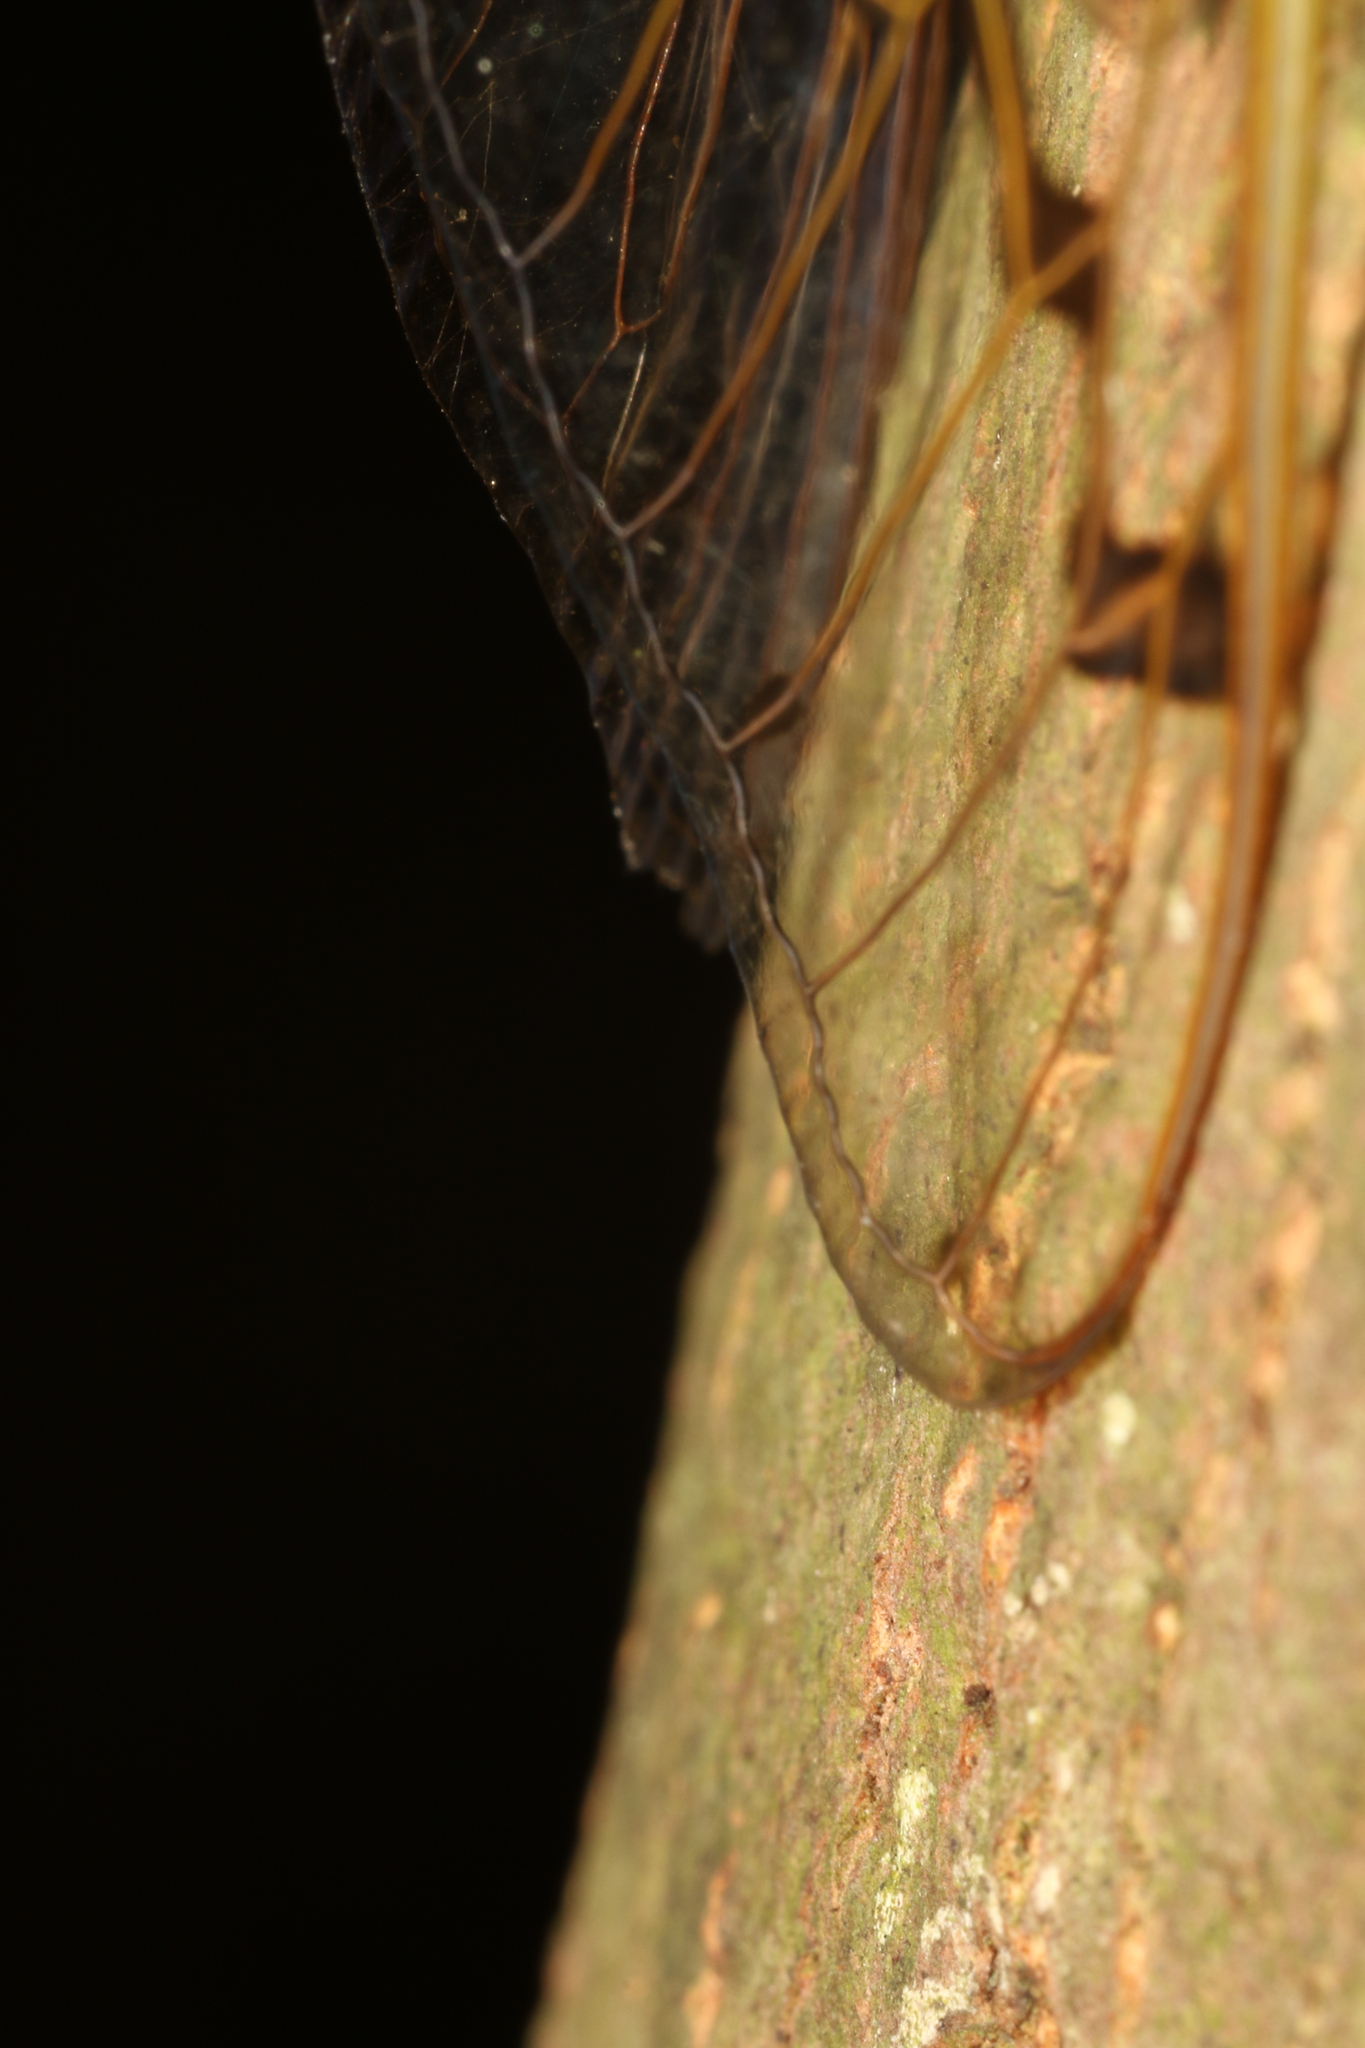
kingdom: Animalia
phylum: Arthropoda
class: Insecta
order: Hemiptera
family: Cicadidae
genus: Zammara
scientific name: Zammara tympanum
